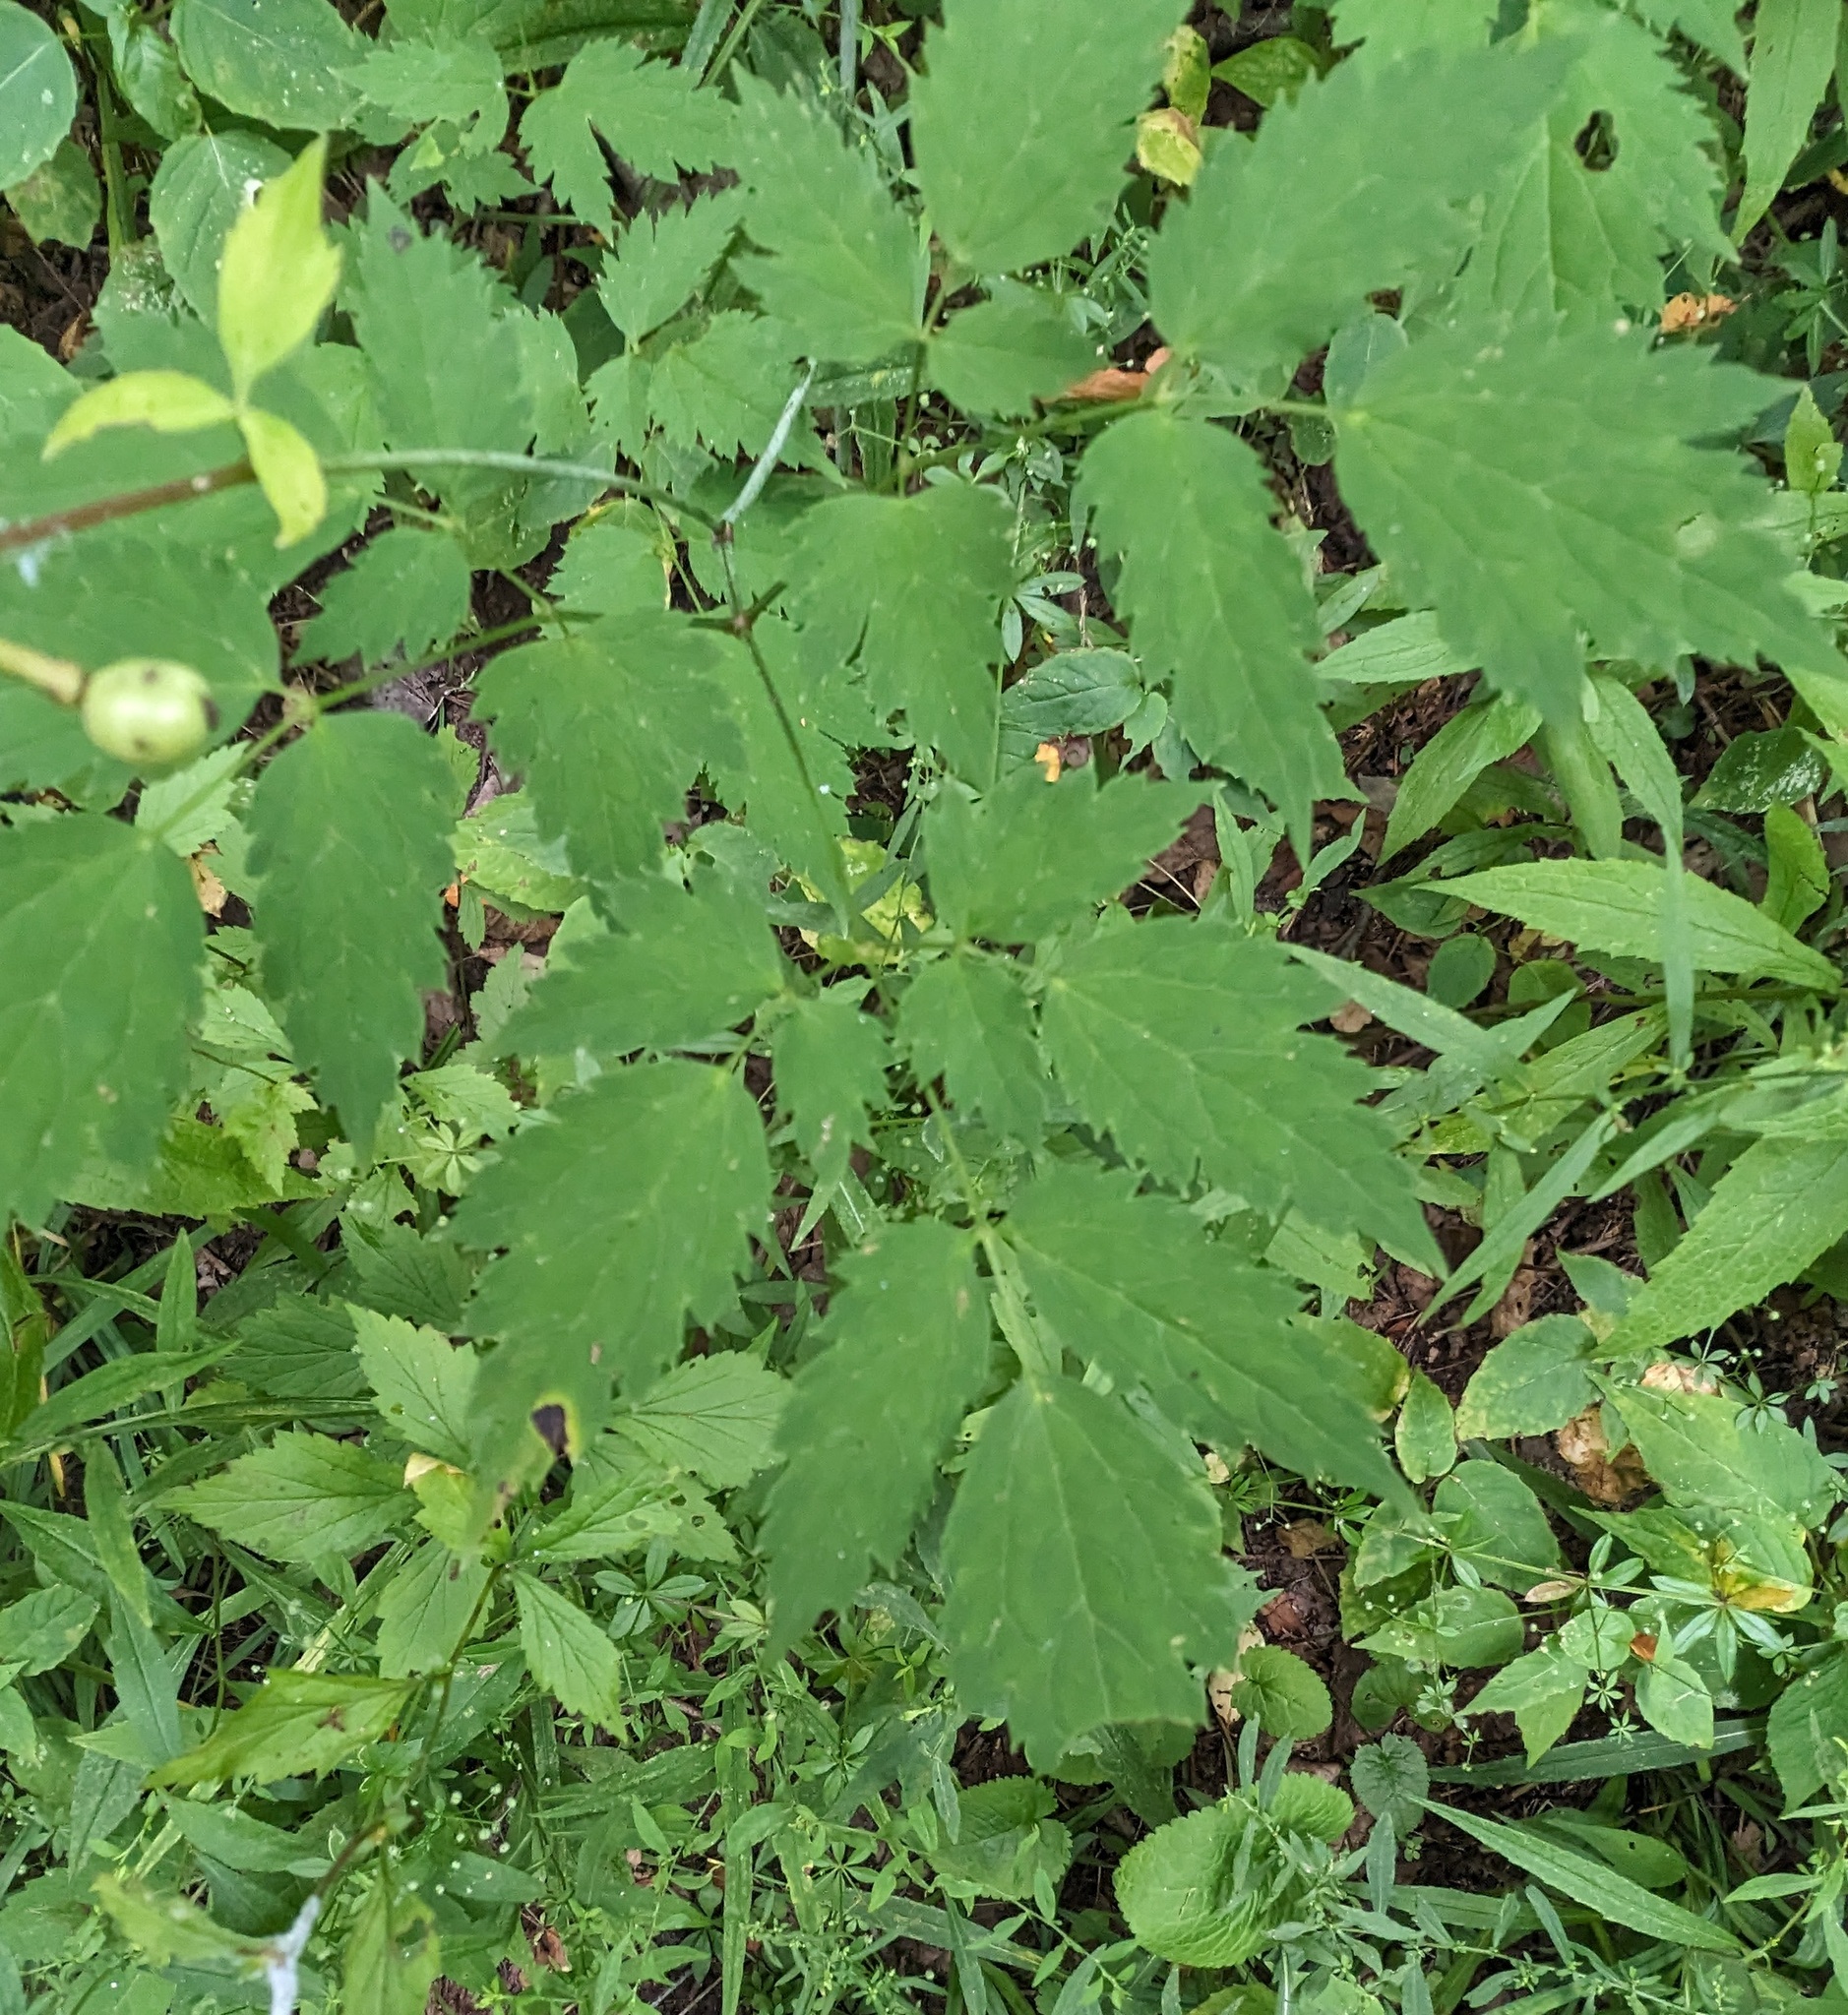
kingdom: Plantae
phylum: Tracheophyta
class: Magnoliopsida
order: Ranunculales
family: Ranunculaceae
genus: Actaea
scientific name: Actaea pachypoda
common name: Doll's-eyes
